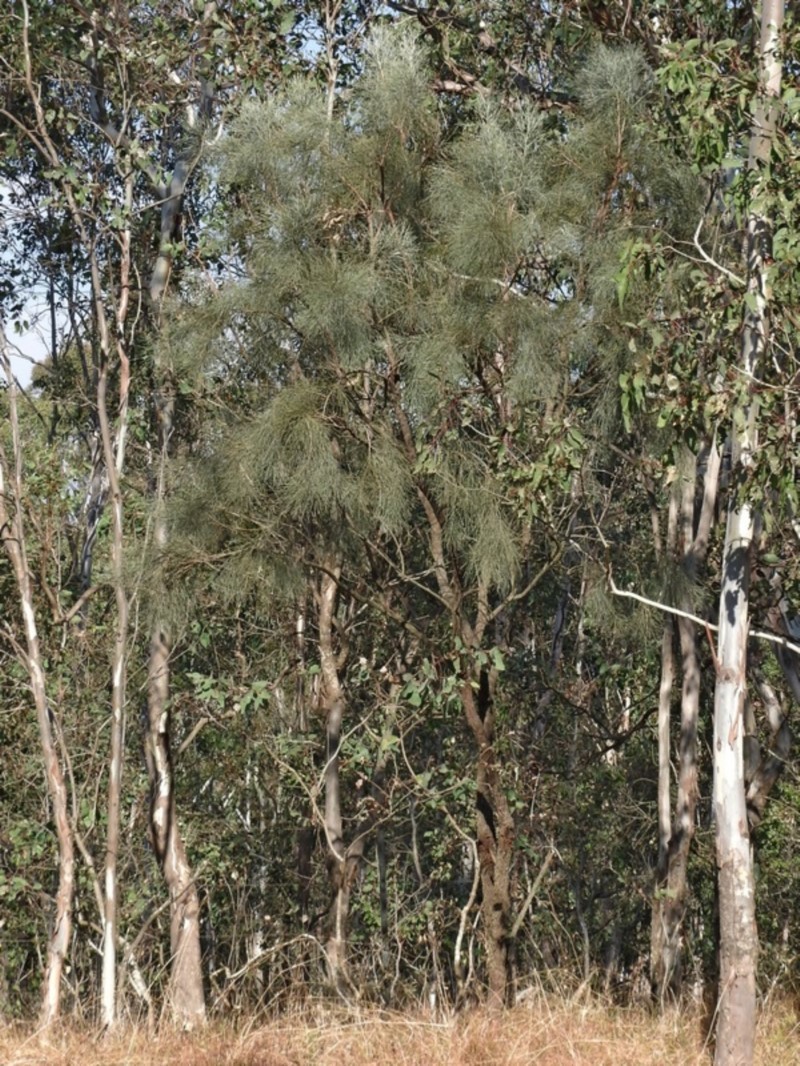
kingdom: Plantae
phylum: Tracheophyta
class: Magnoliopsida
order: Fabales
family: Fabaceae
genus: Jacksonia
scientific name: Jacksonia scoparia
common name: Dogwood
